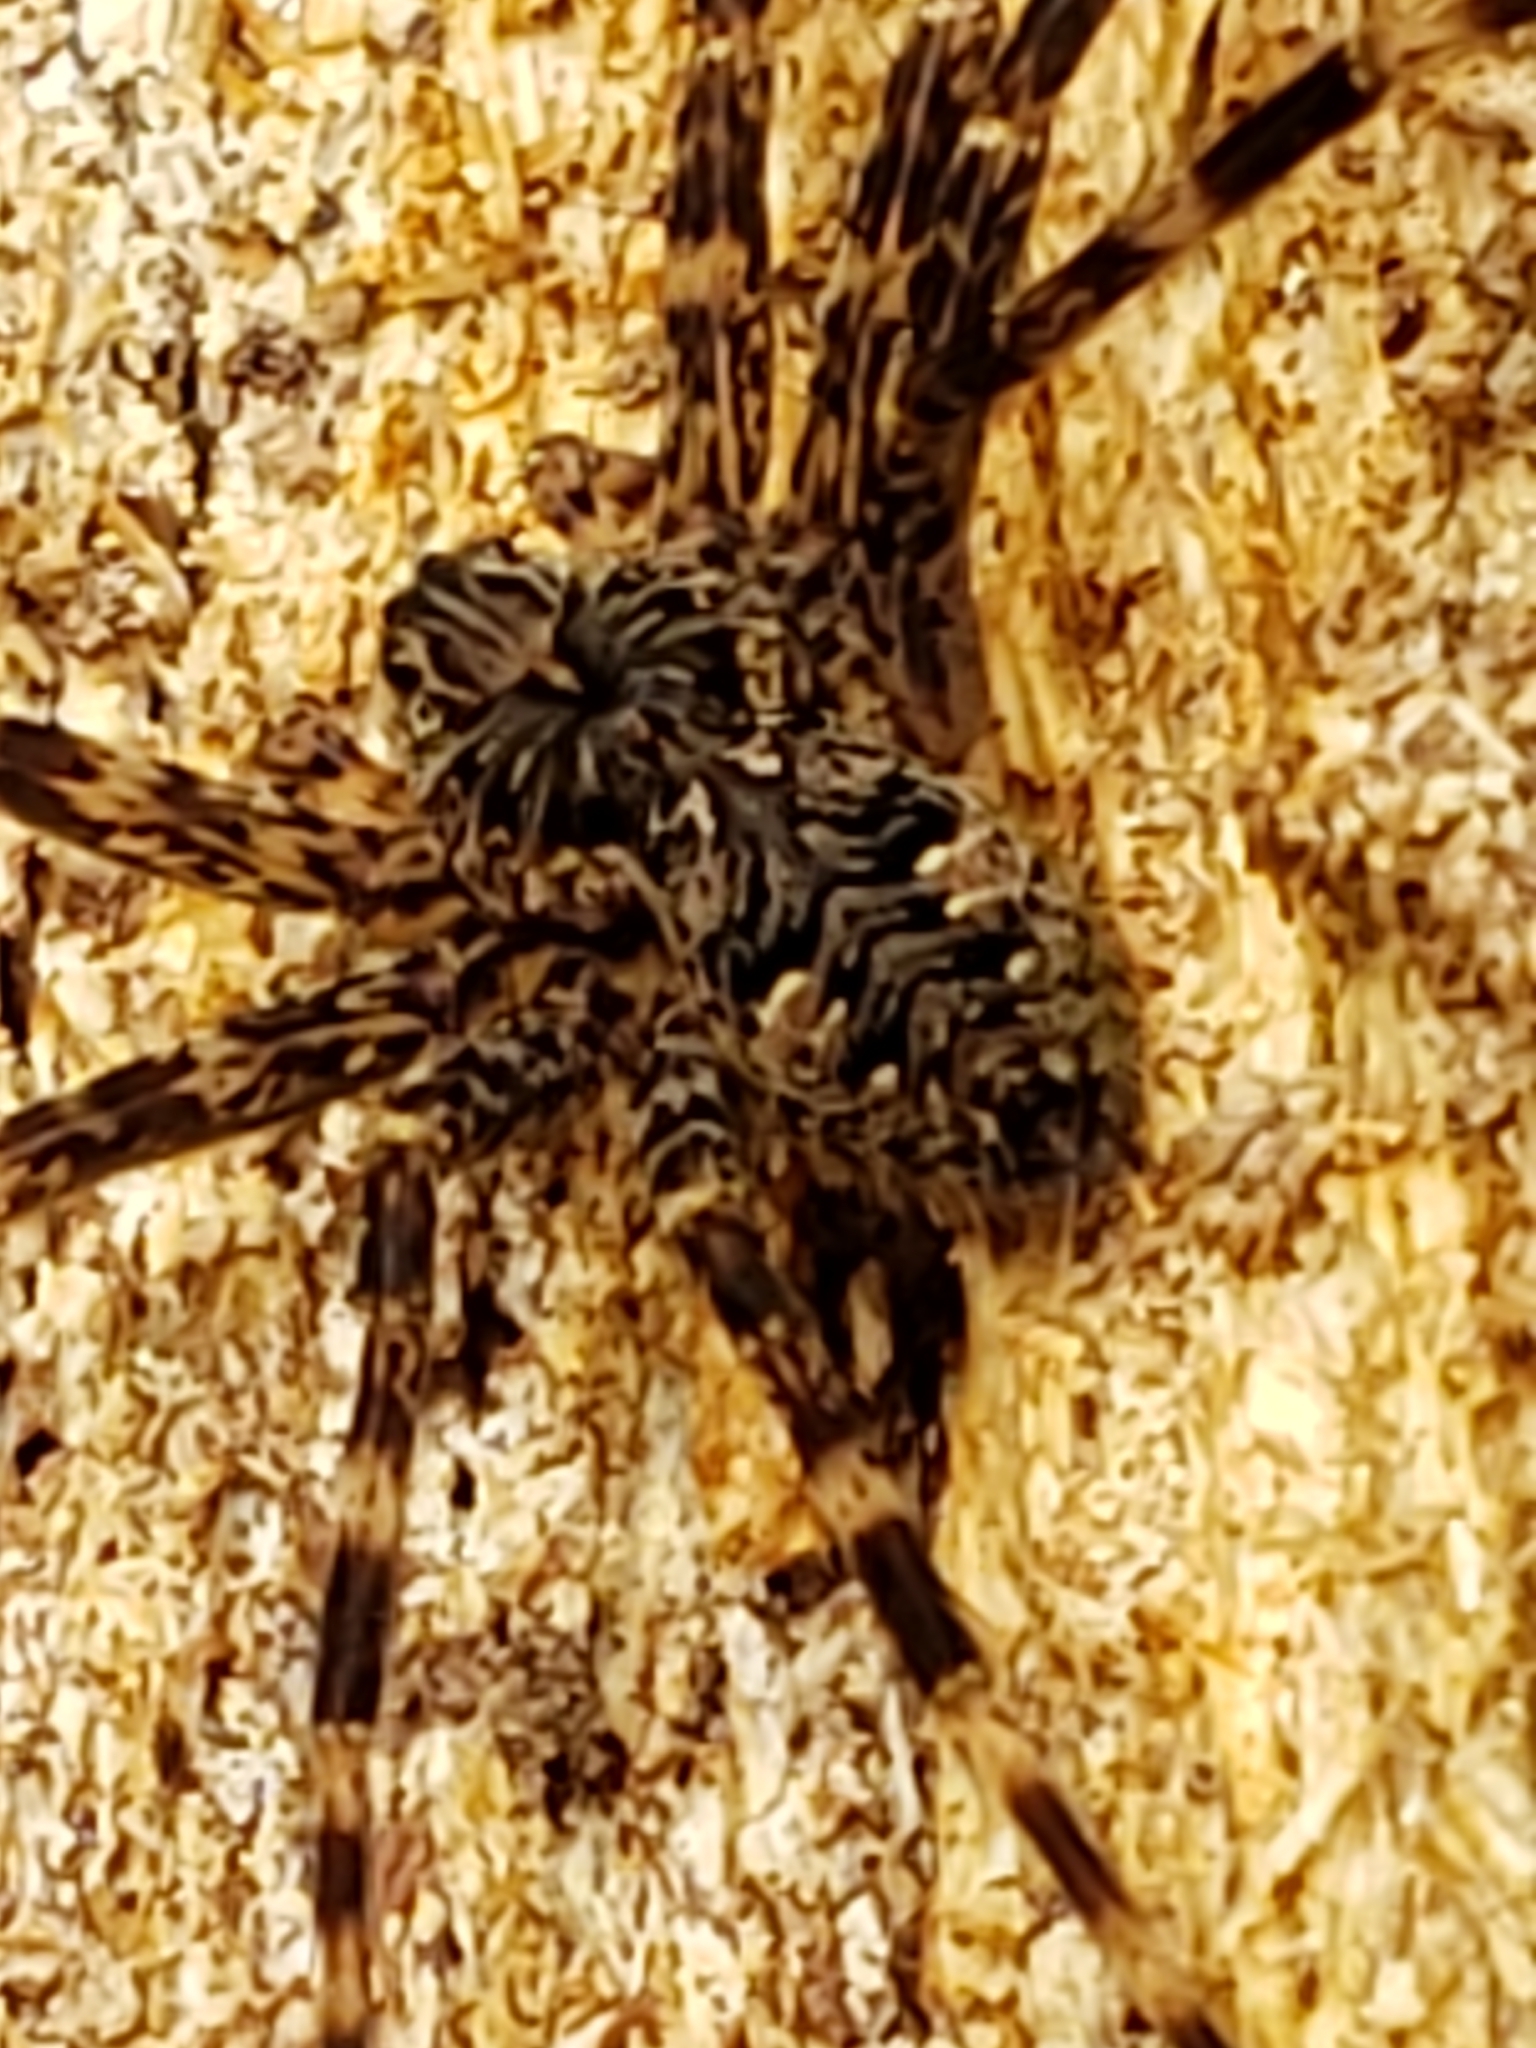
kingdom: Animalia
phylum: Arthropoda
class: Arachnida
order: Araneae
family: Pisauridae
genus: Dolomedes
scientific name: Dolomedes tenebrosus
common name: Dark fishing spider
